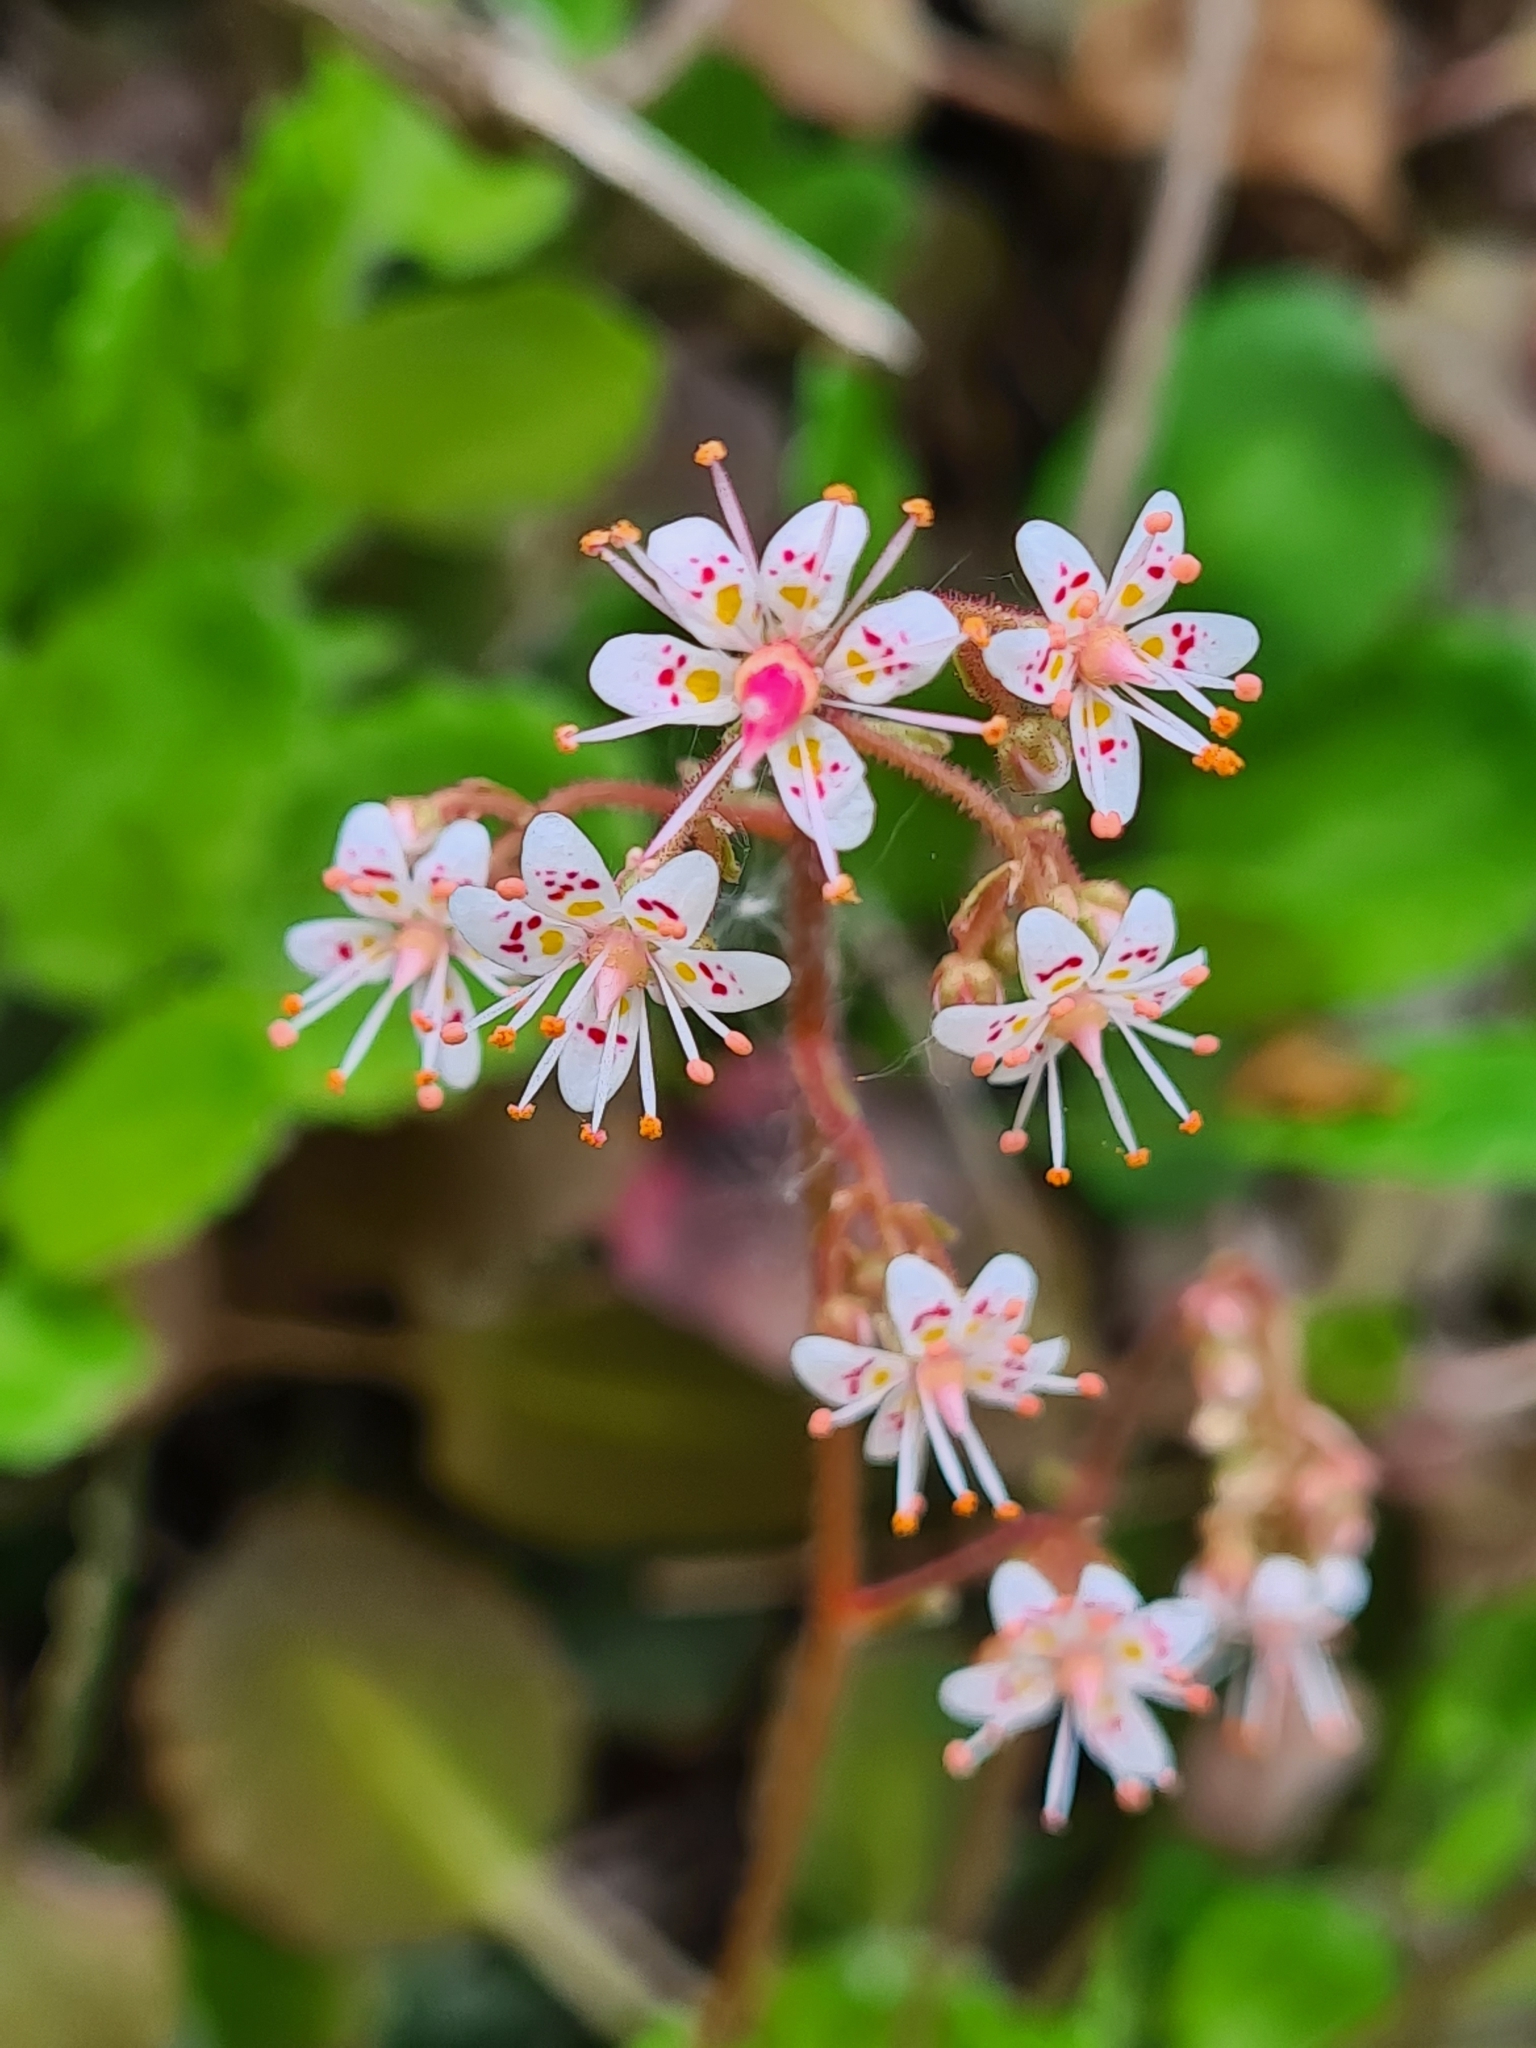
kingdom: Plantae
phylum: Tracheophyta
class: Magnoliopsida
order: Saxifragales
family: Saxifragaceae
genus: Saxifraga
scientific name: Saxifraga geum
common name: Geum saxifrage
